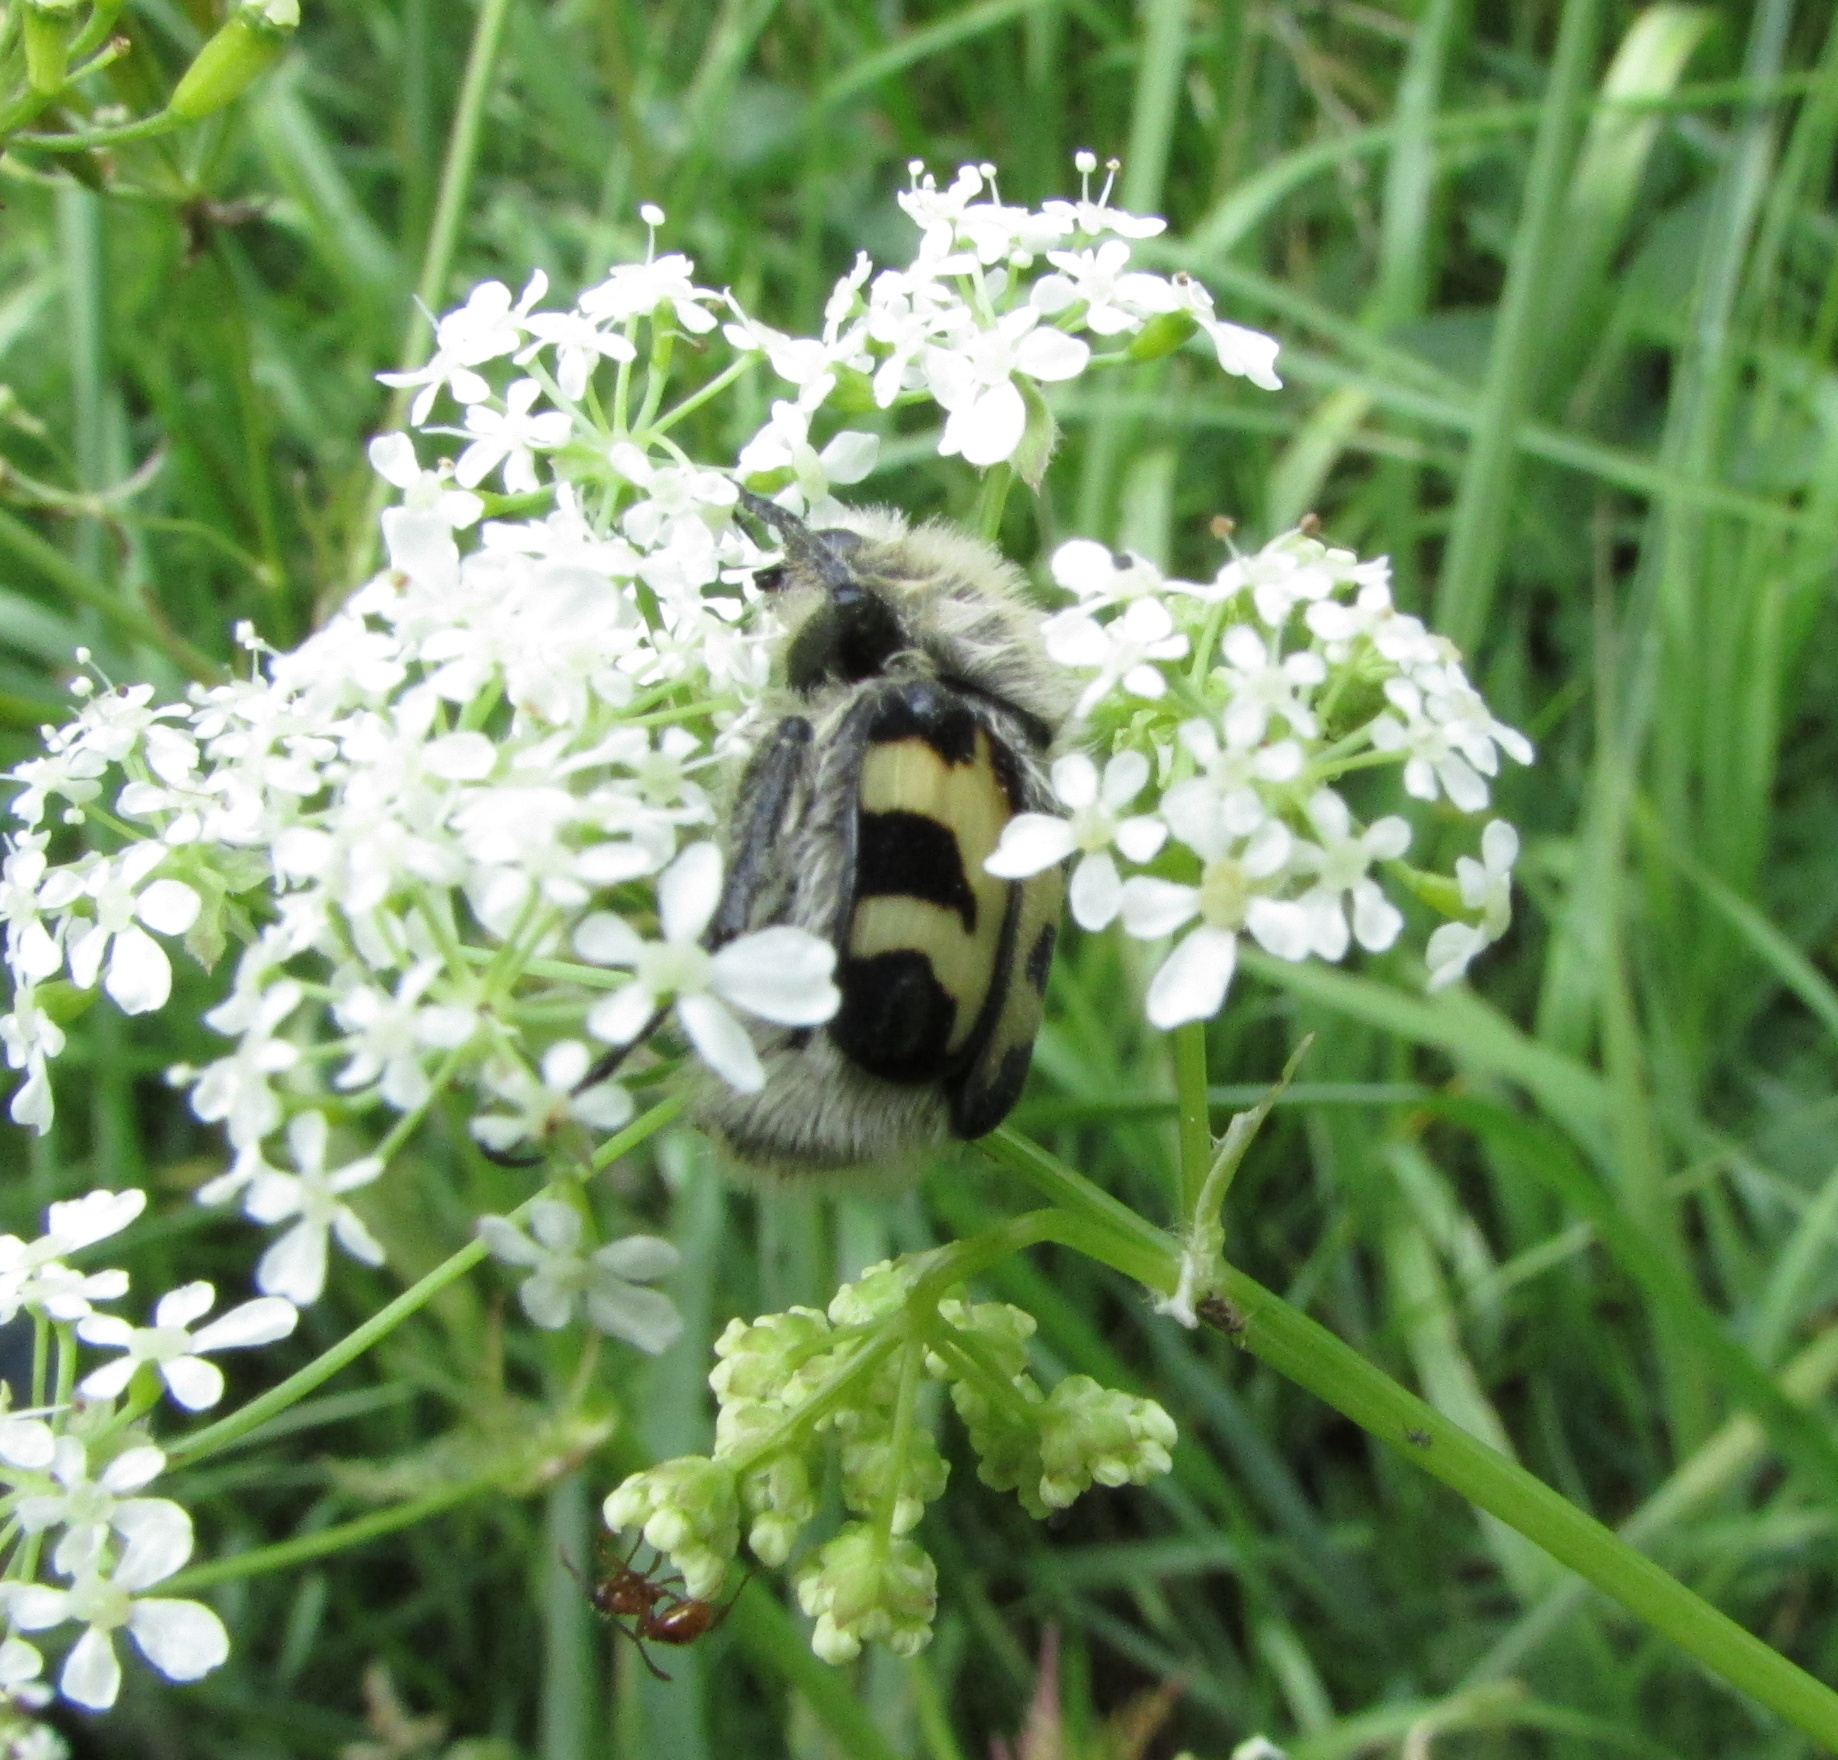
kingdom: Animalia
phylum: Arthropoda
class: Insecta
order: Coleoptera
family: Scarabaeidae
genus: Trichius
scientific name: Trichius fasciatus
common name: Bee beetle
